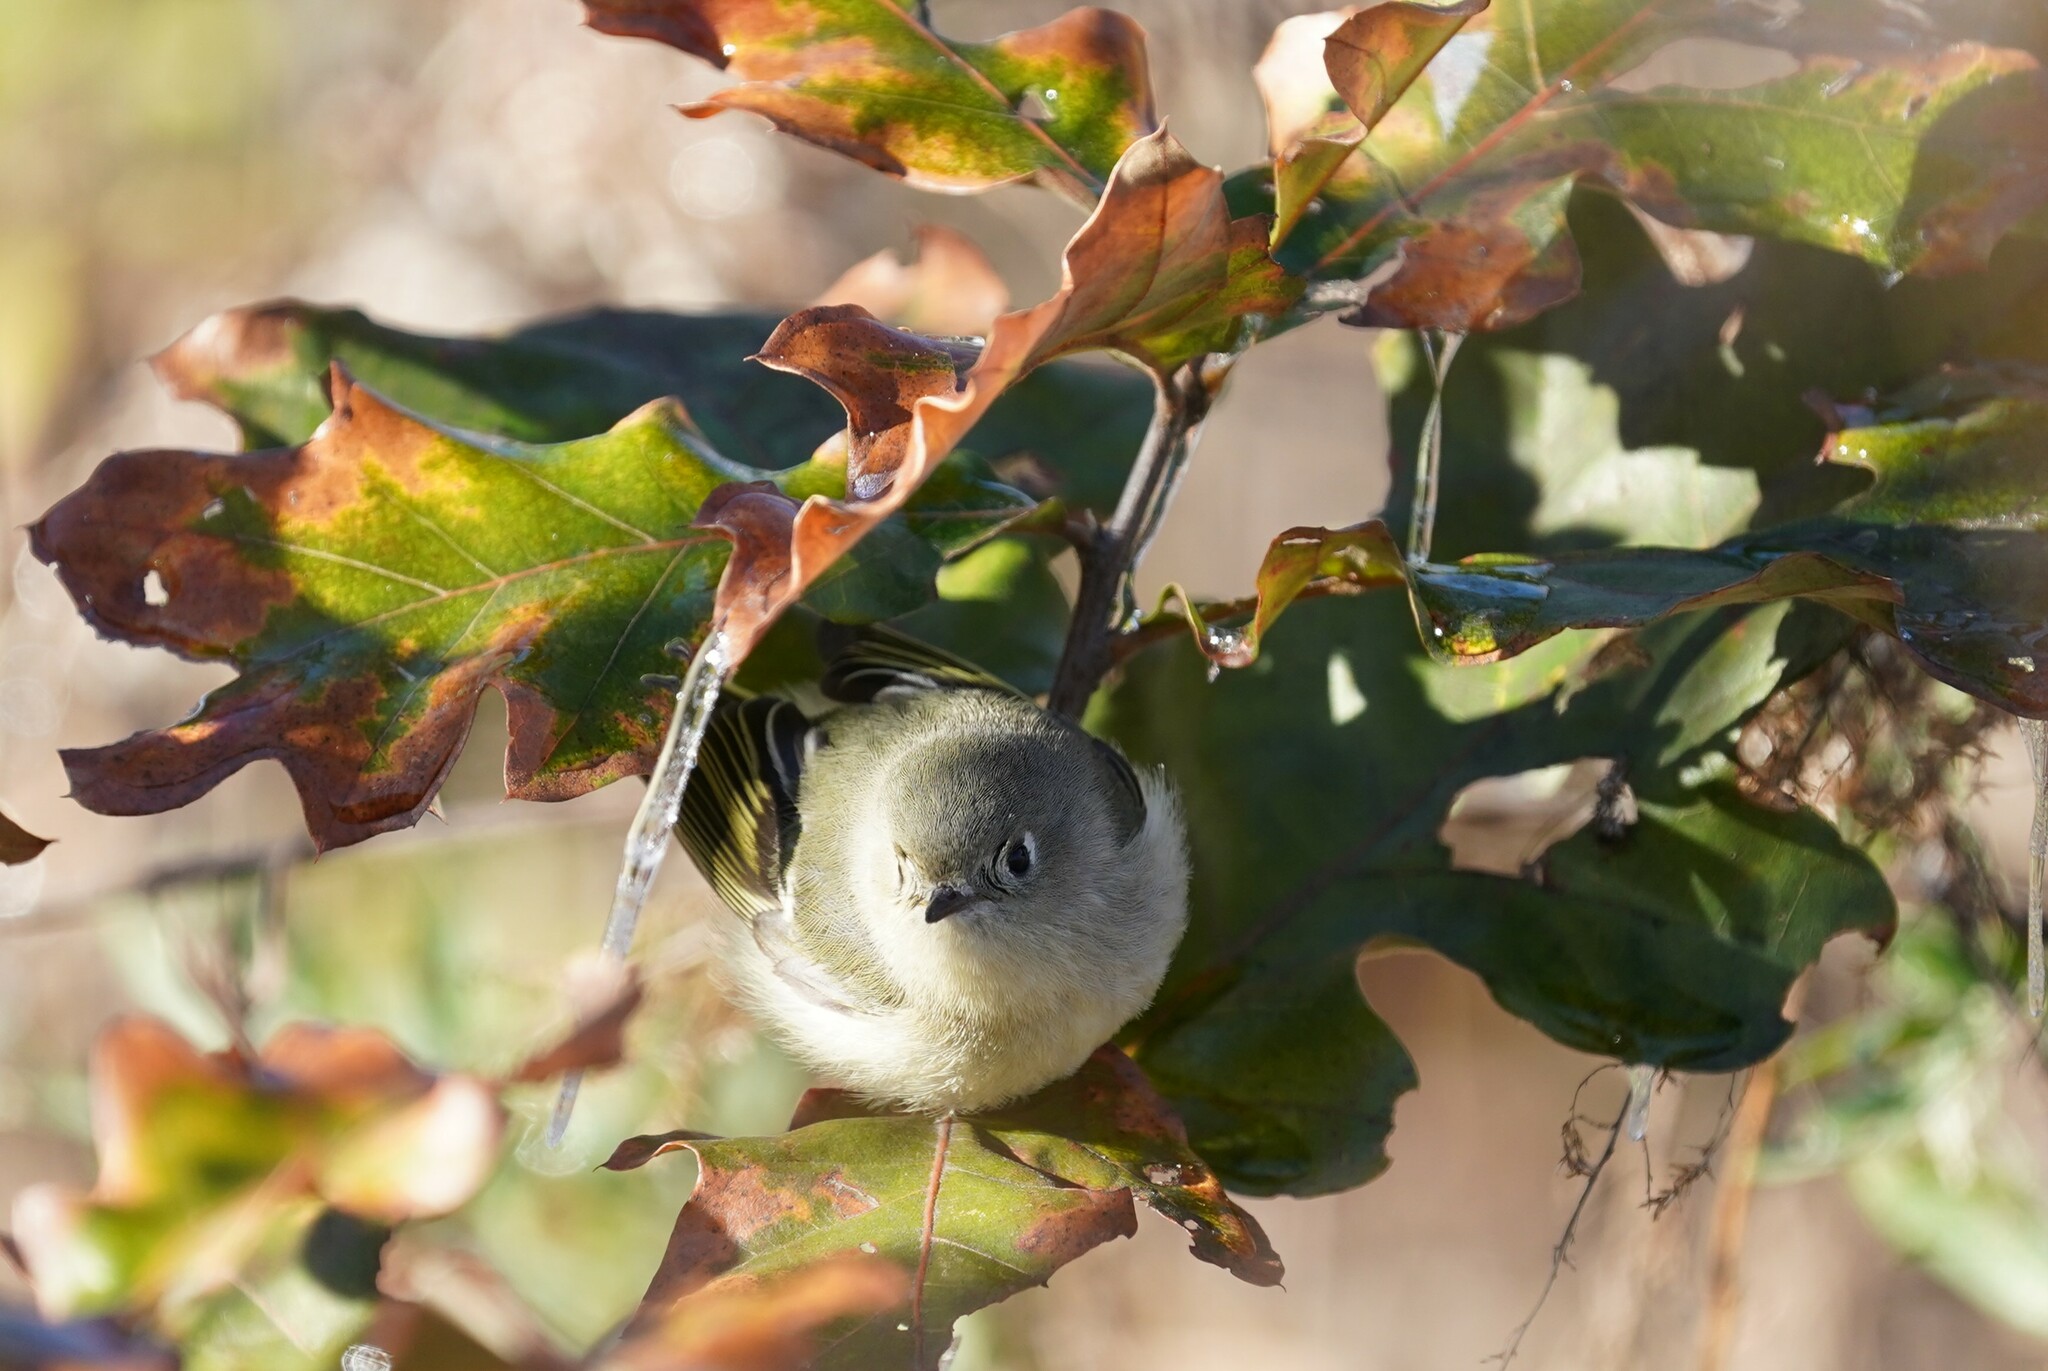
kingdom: Animalia
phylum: Chordata
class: Aves
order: Passeriformes
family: Regulidae
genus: Regulus
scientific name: Regulus calendula
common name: Ruby-crowned kinglet
